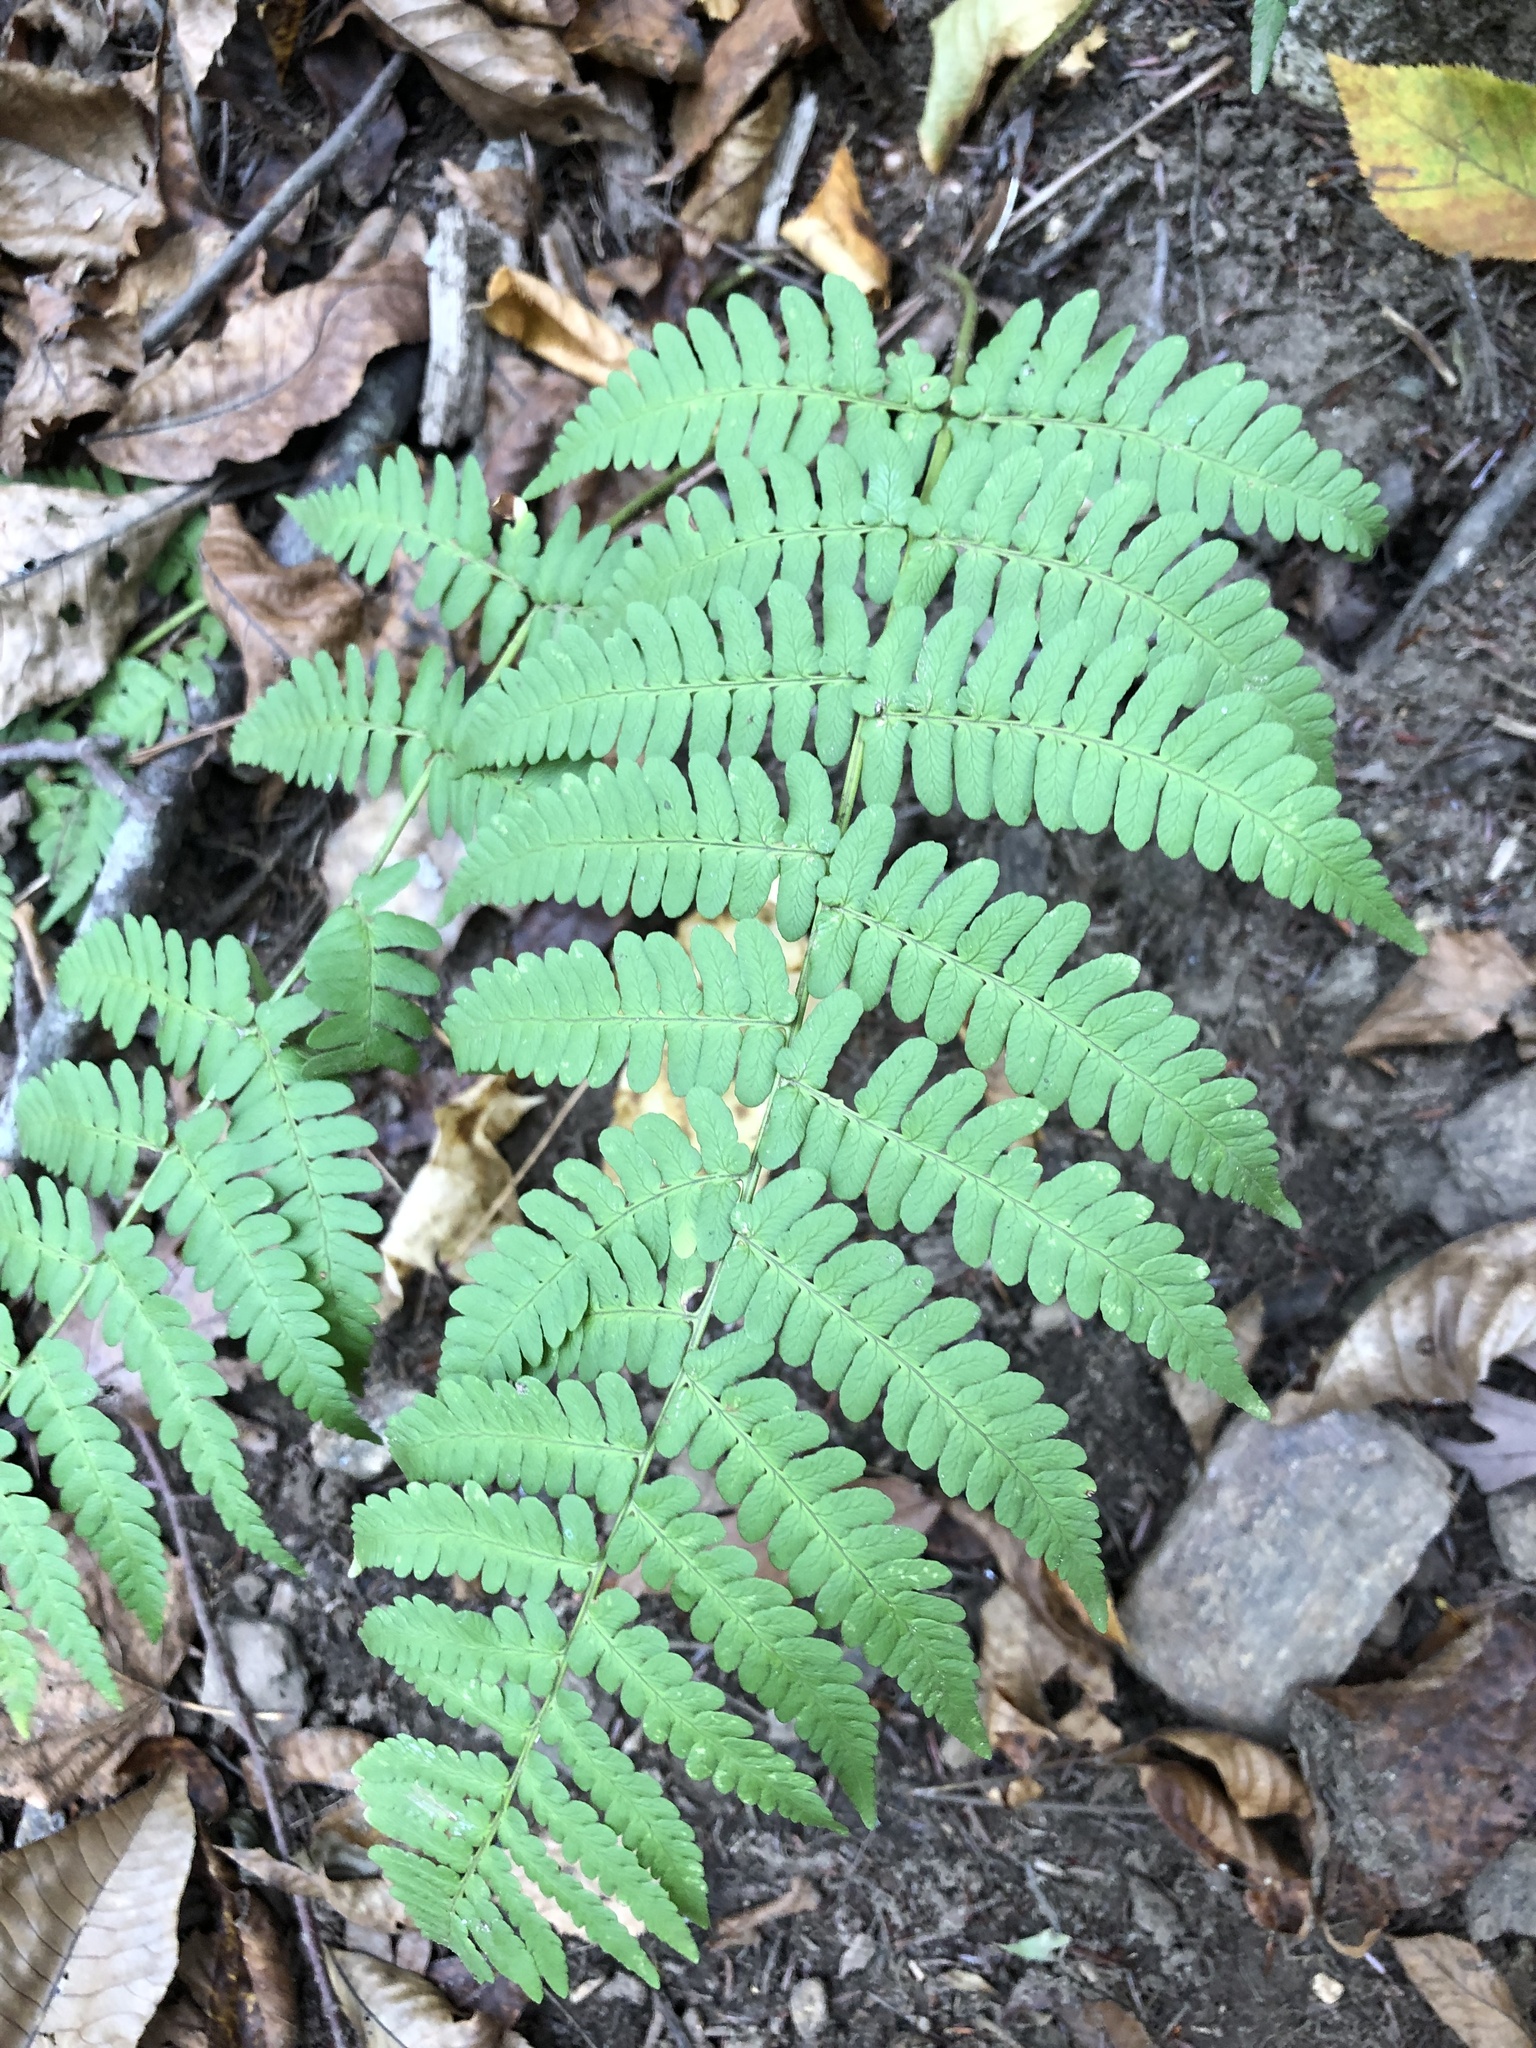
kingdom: Plantae
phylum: Tracheophyta
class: Polypodiopsida
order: Polypodiales
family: Dryopteridaceae
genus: Dryopteris
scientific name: Dryopteris marginalis
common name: Marginal wood fern
